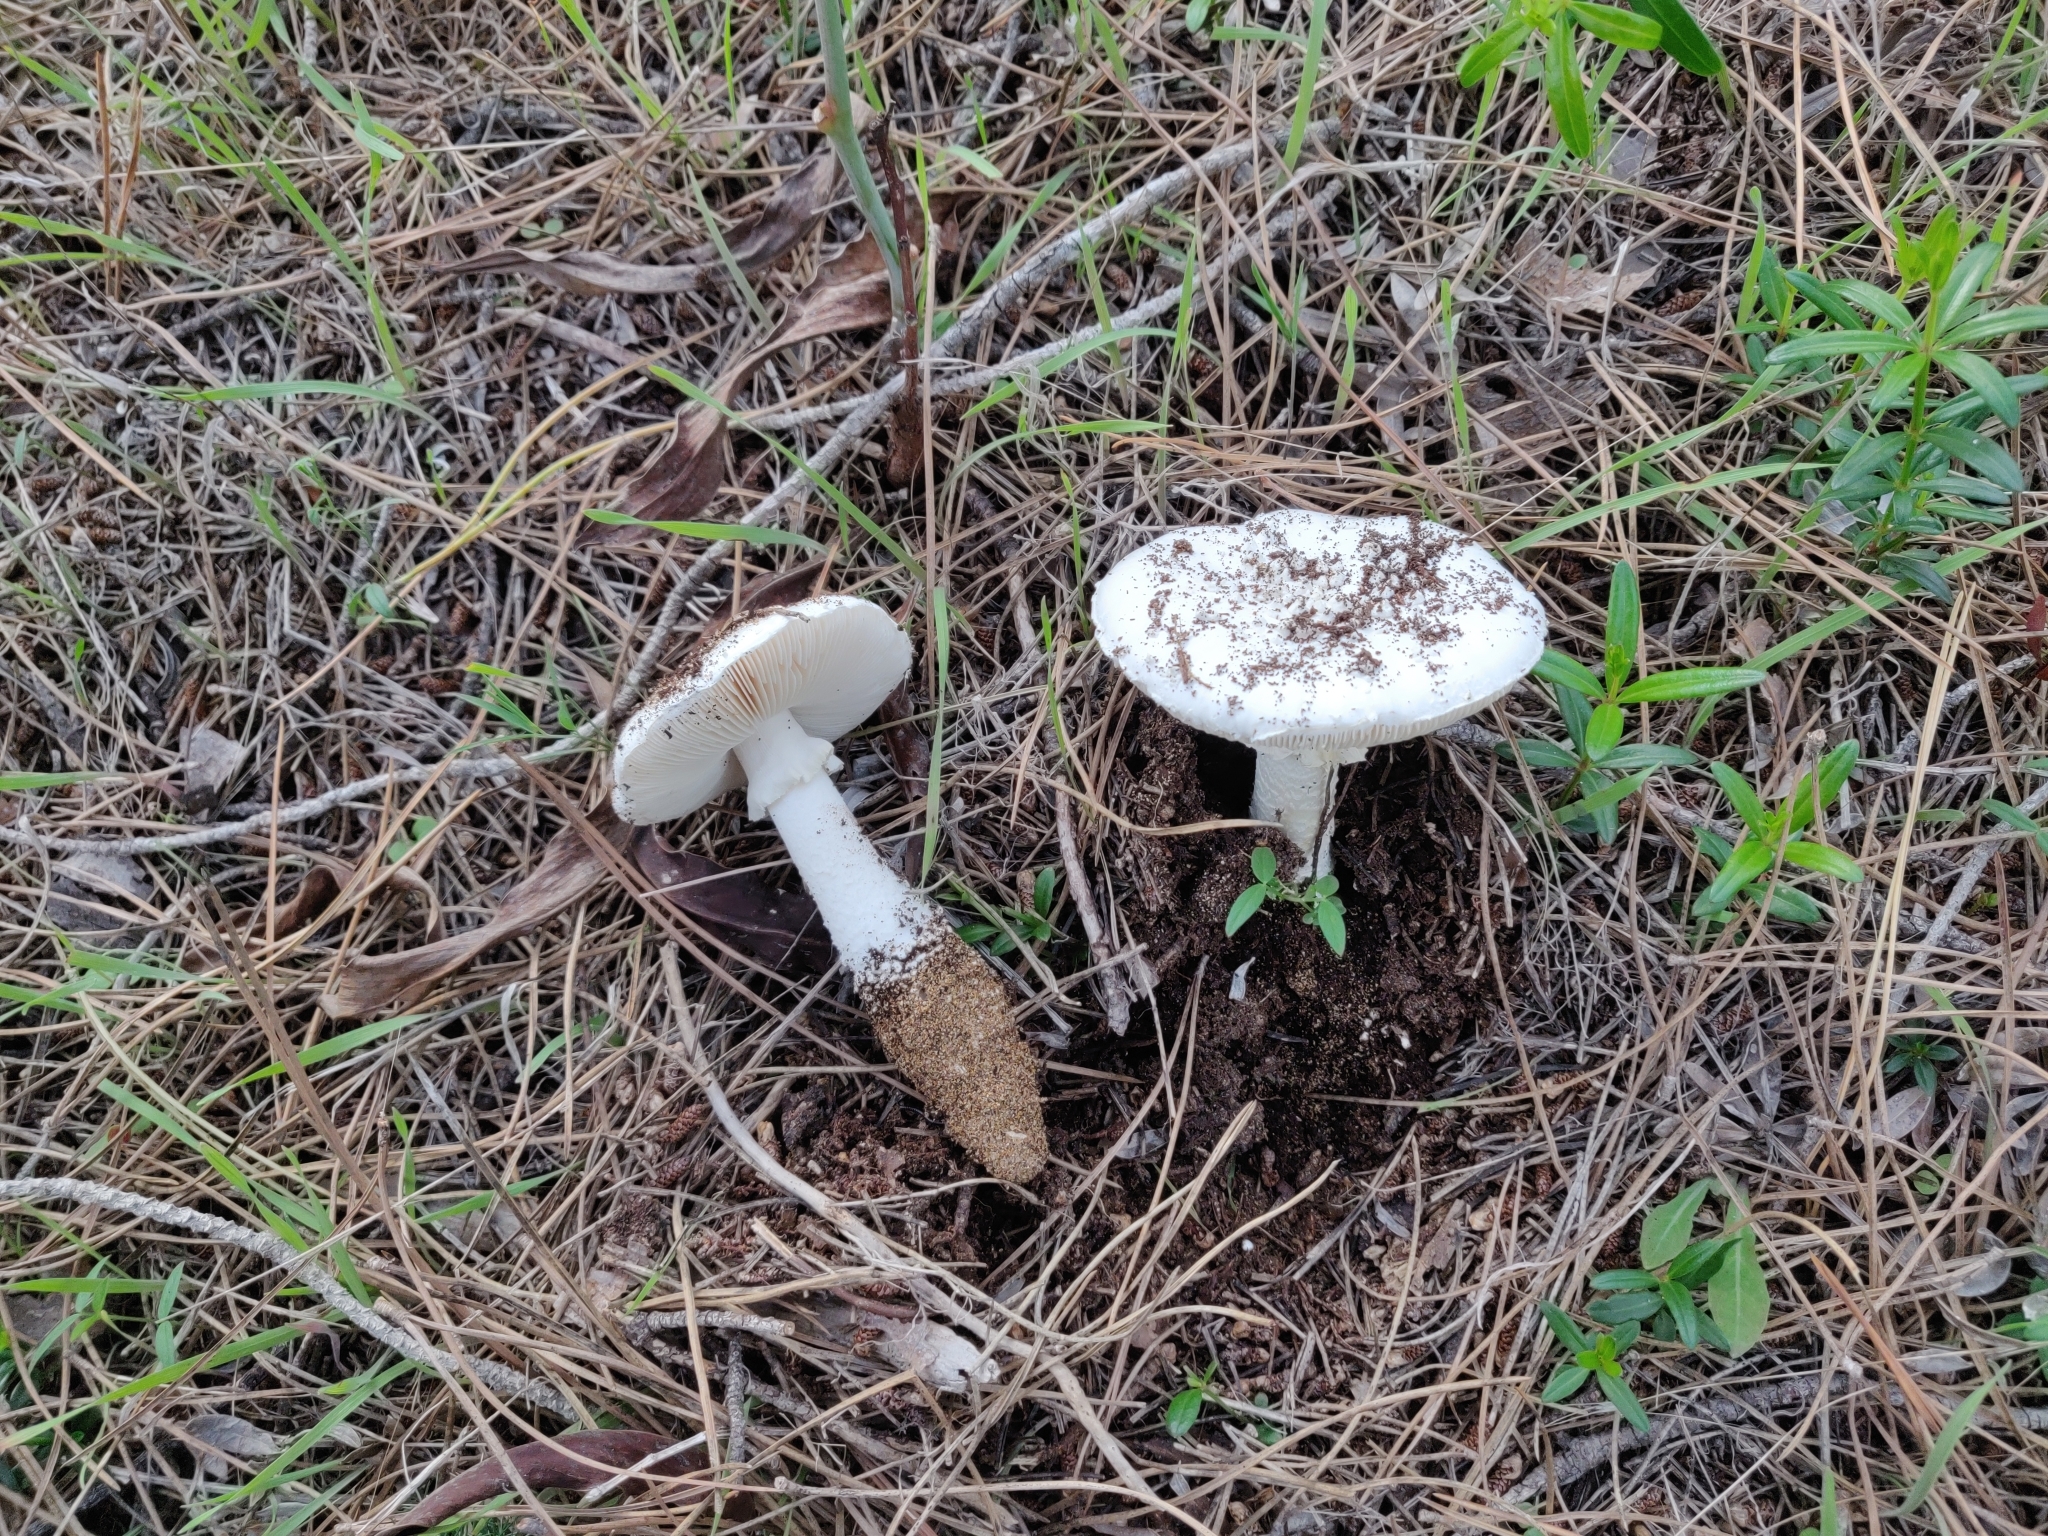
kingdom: Fungi
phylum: Basidiomycota
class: Agaricomycetes
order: Agaricales
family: Amanitaceae
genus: Amanita
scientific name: Amanita gracilior
